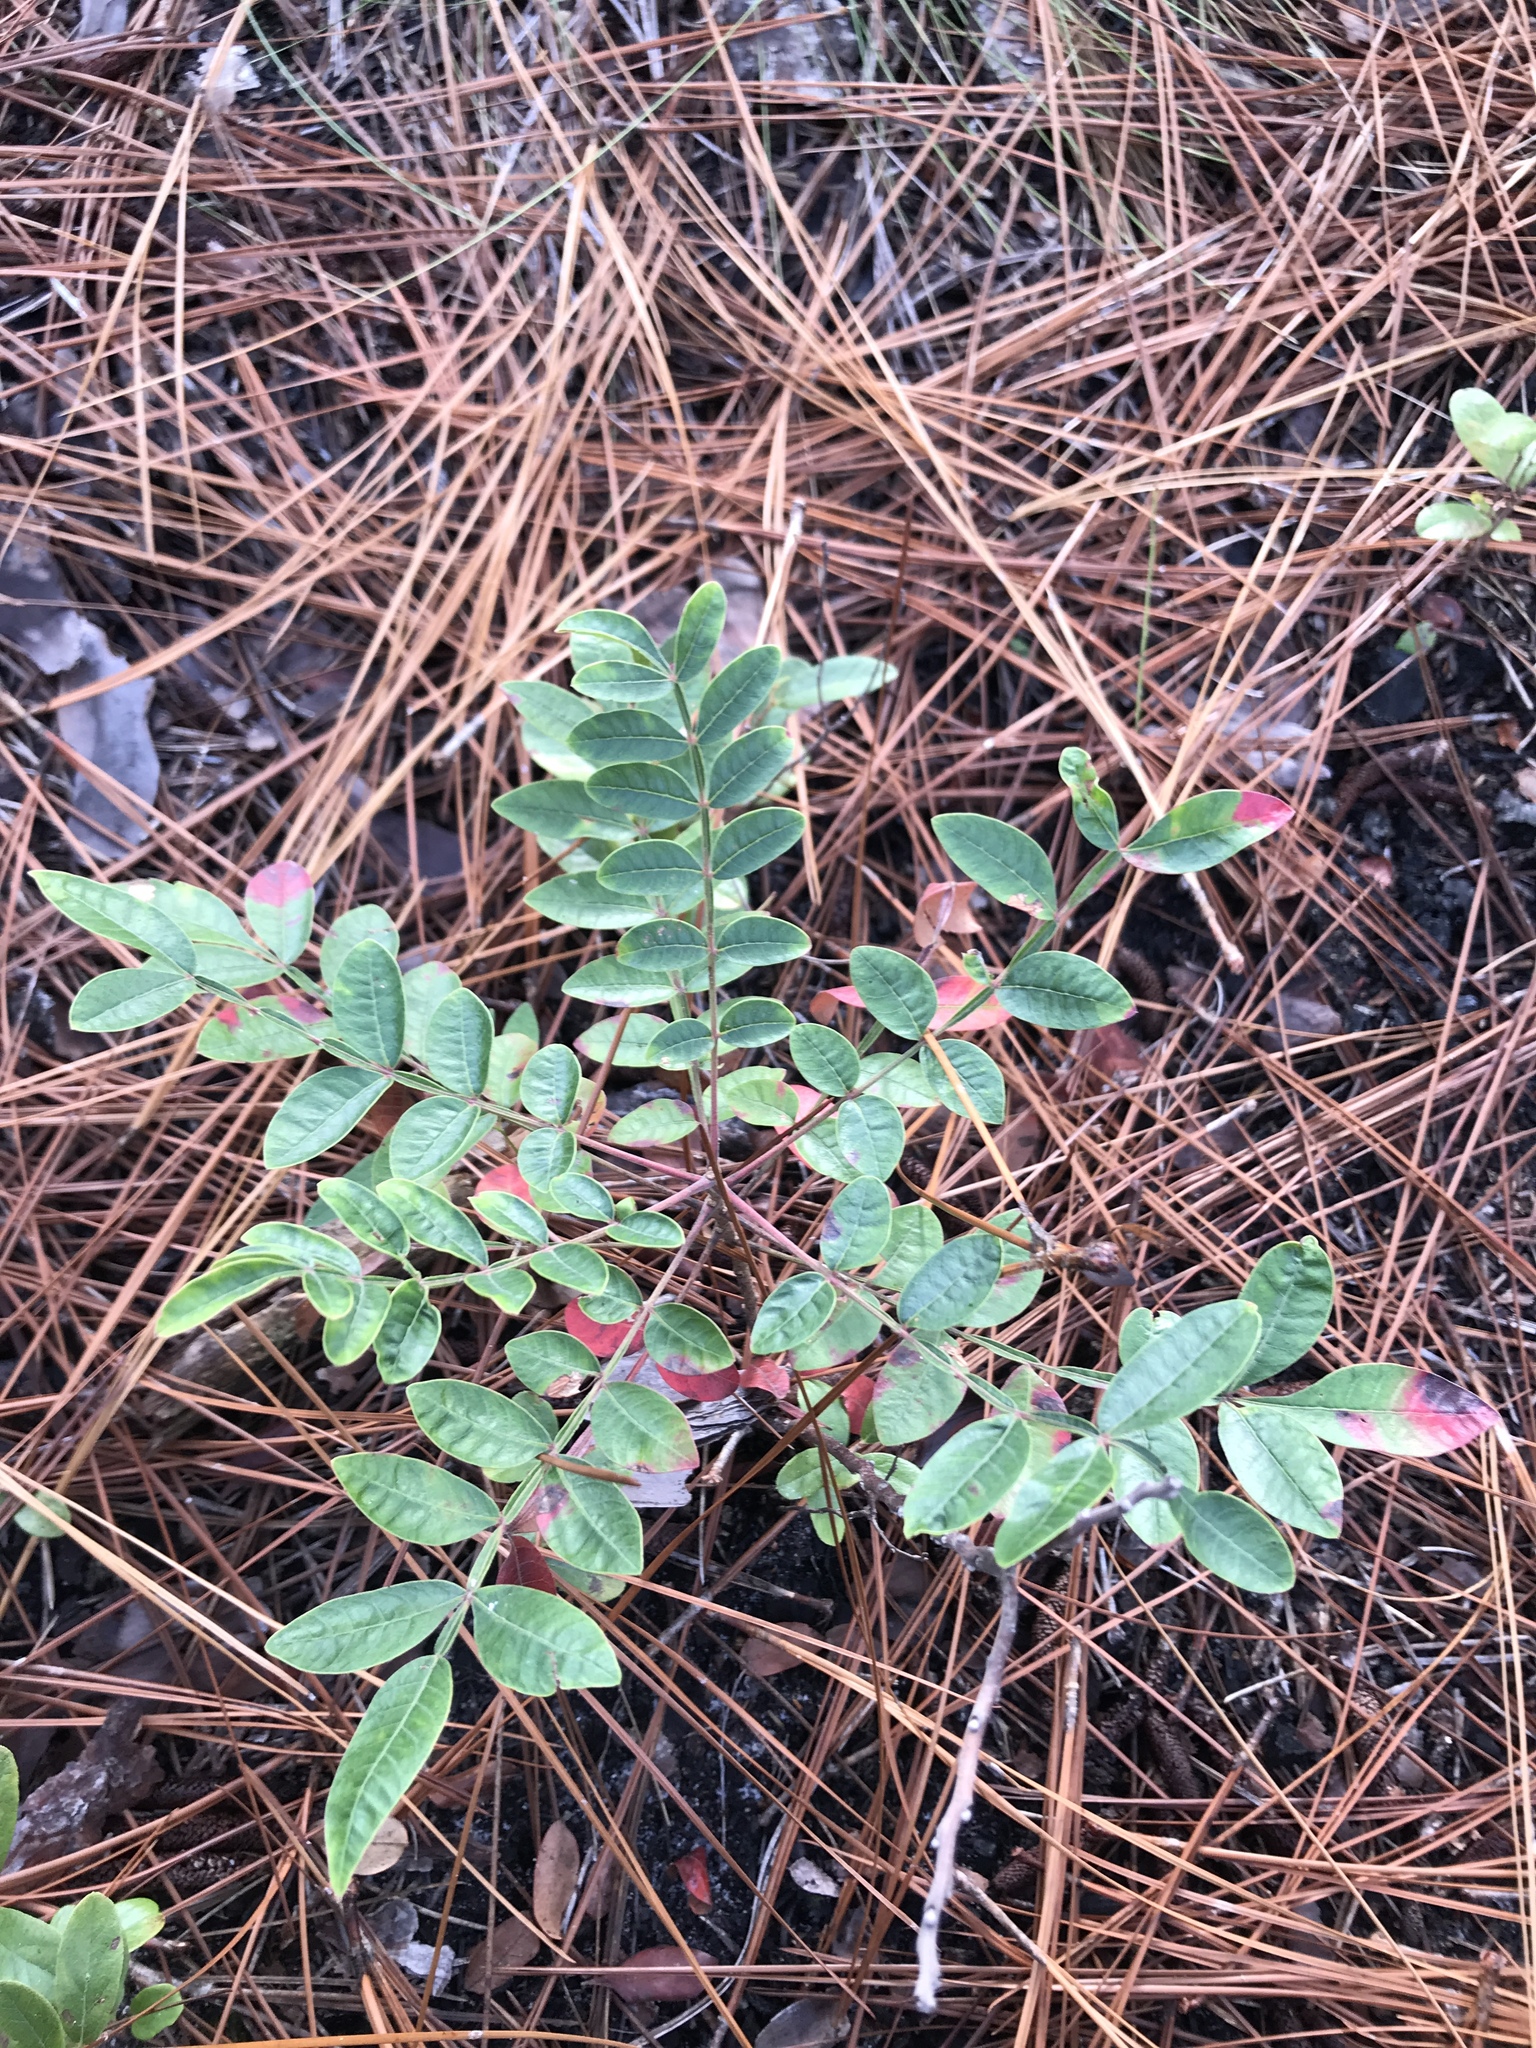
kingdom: Plantae
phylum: Tracheophyta
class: Magnoliopsida
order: Sapindales
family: Anacardiaceae
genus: Rhus
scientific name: Rhus copallina
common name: Shining sumac
